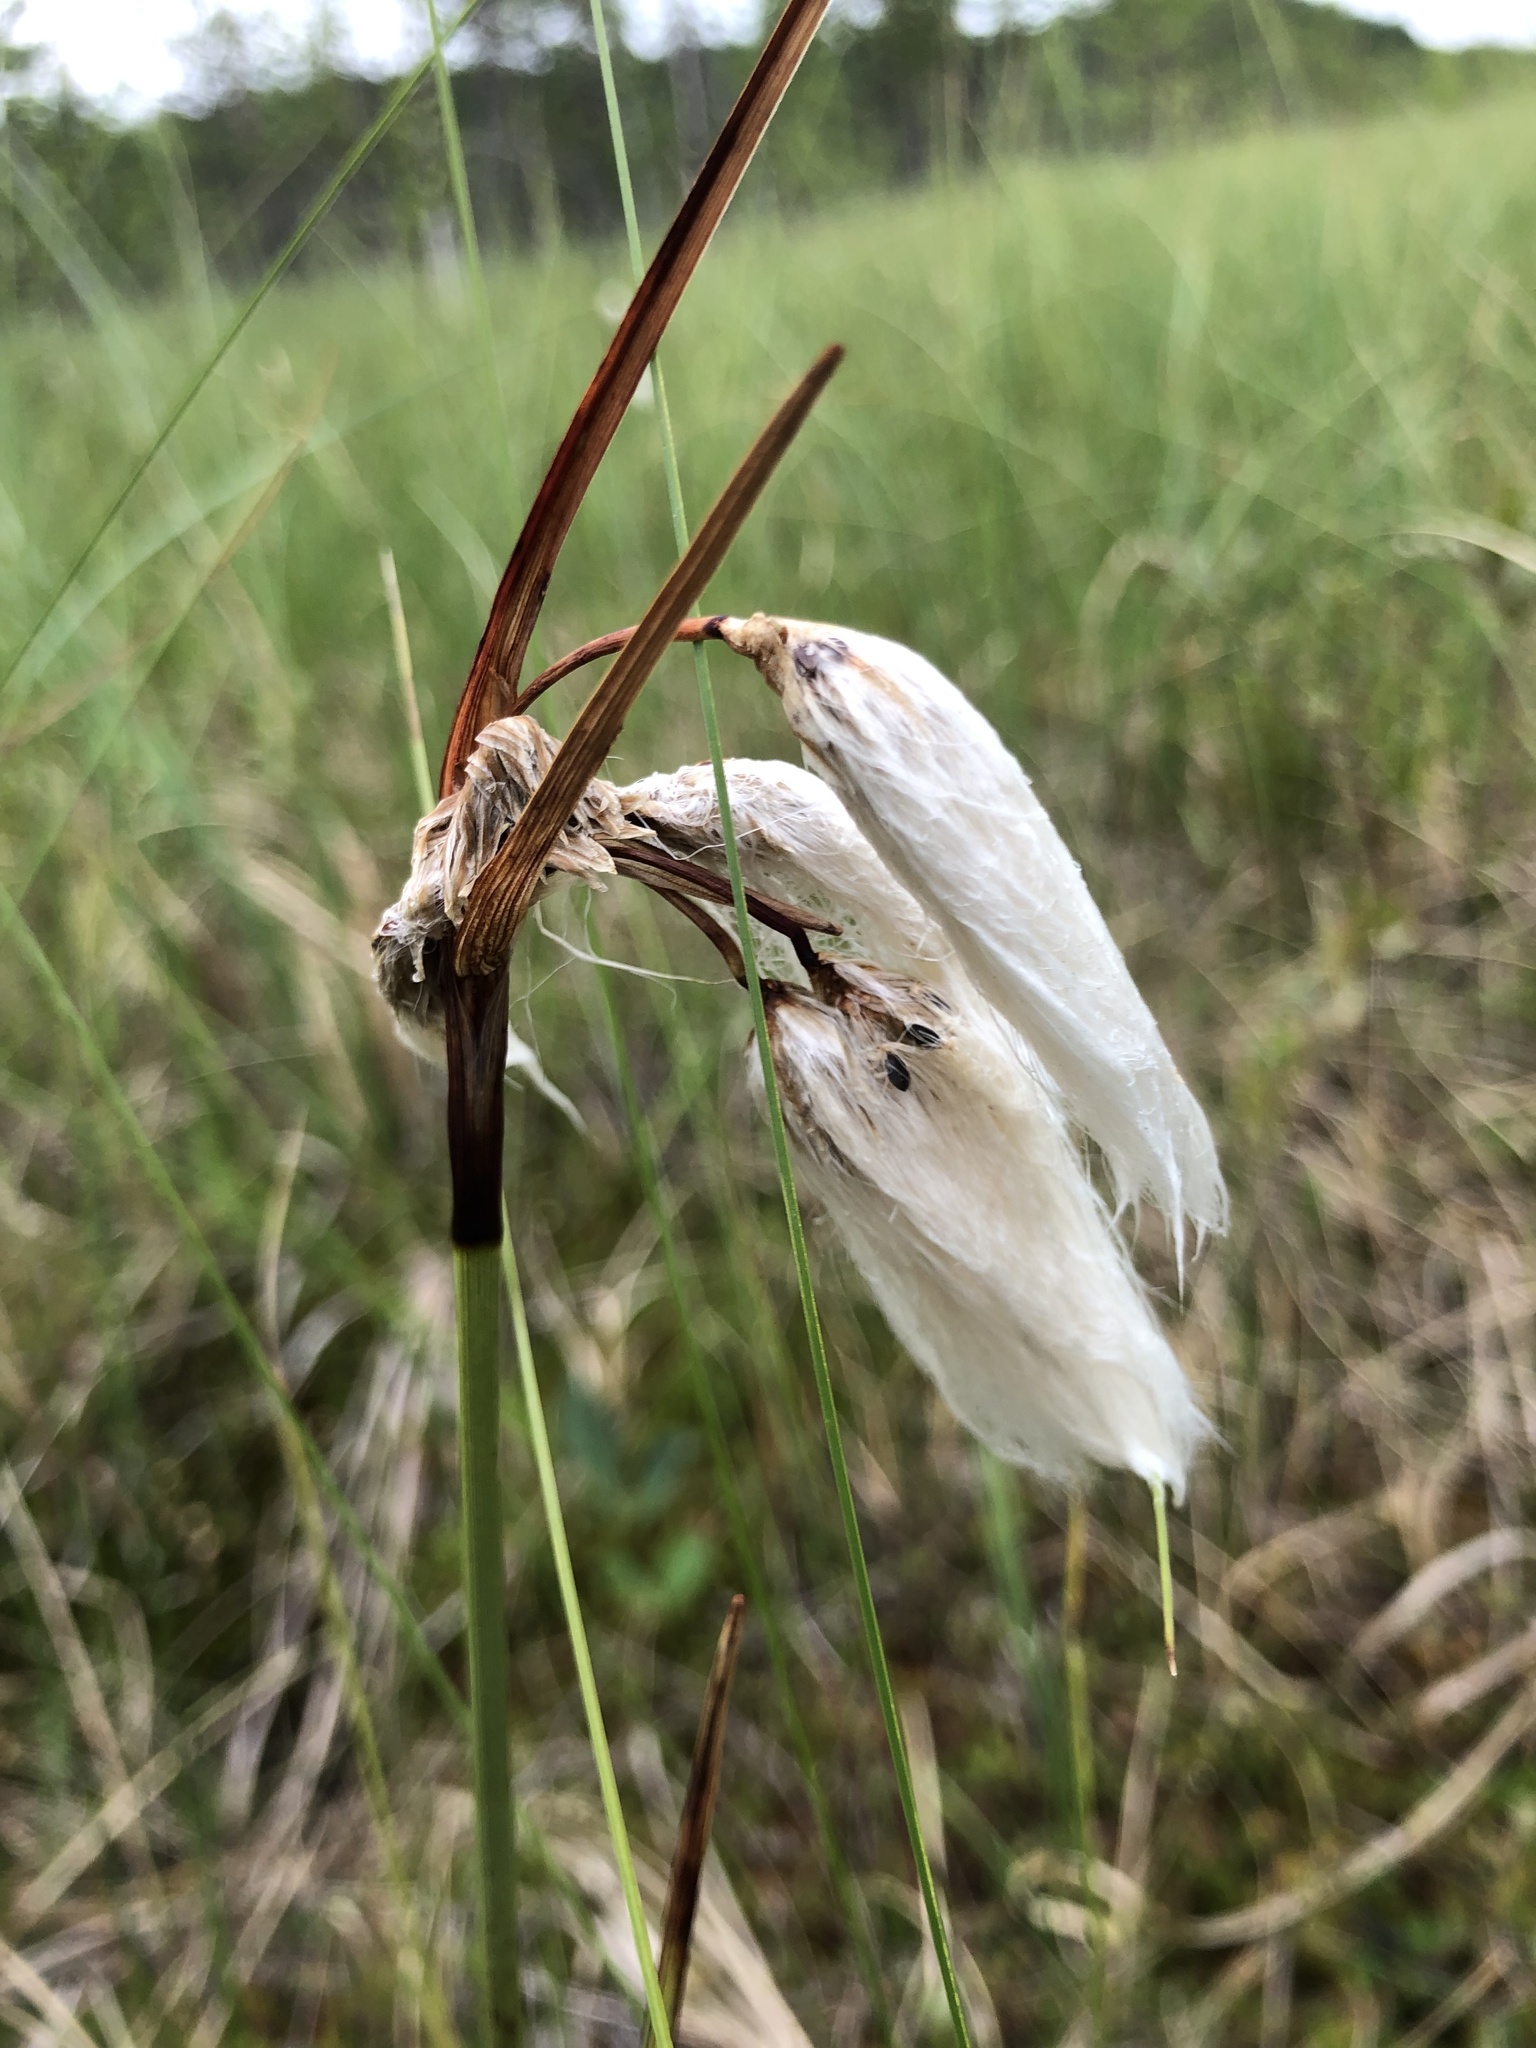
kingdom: Plantae
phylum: Tracheophyta
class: Liliopsida
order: Poales
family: Cyperaceae
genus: Eriophorum
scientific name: Eriophorum angustifolium
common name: Common cottongrass
